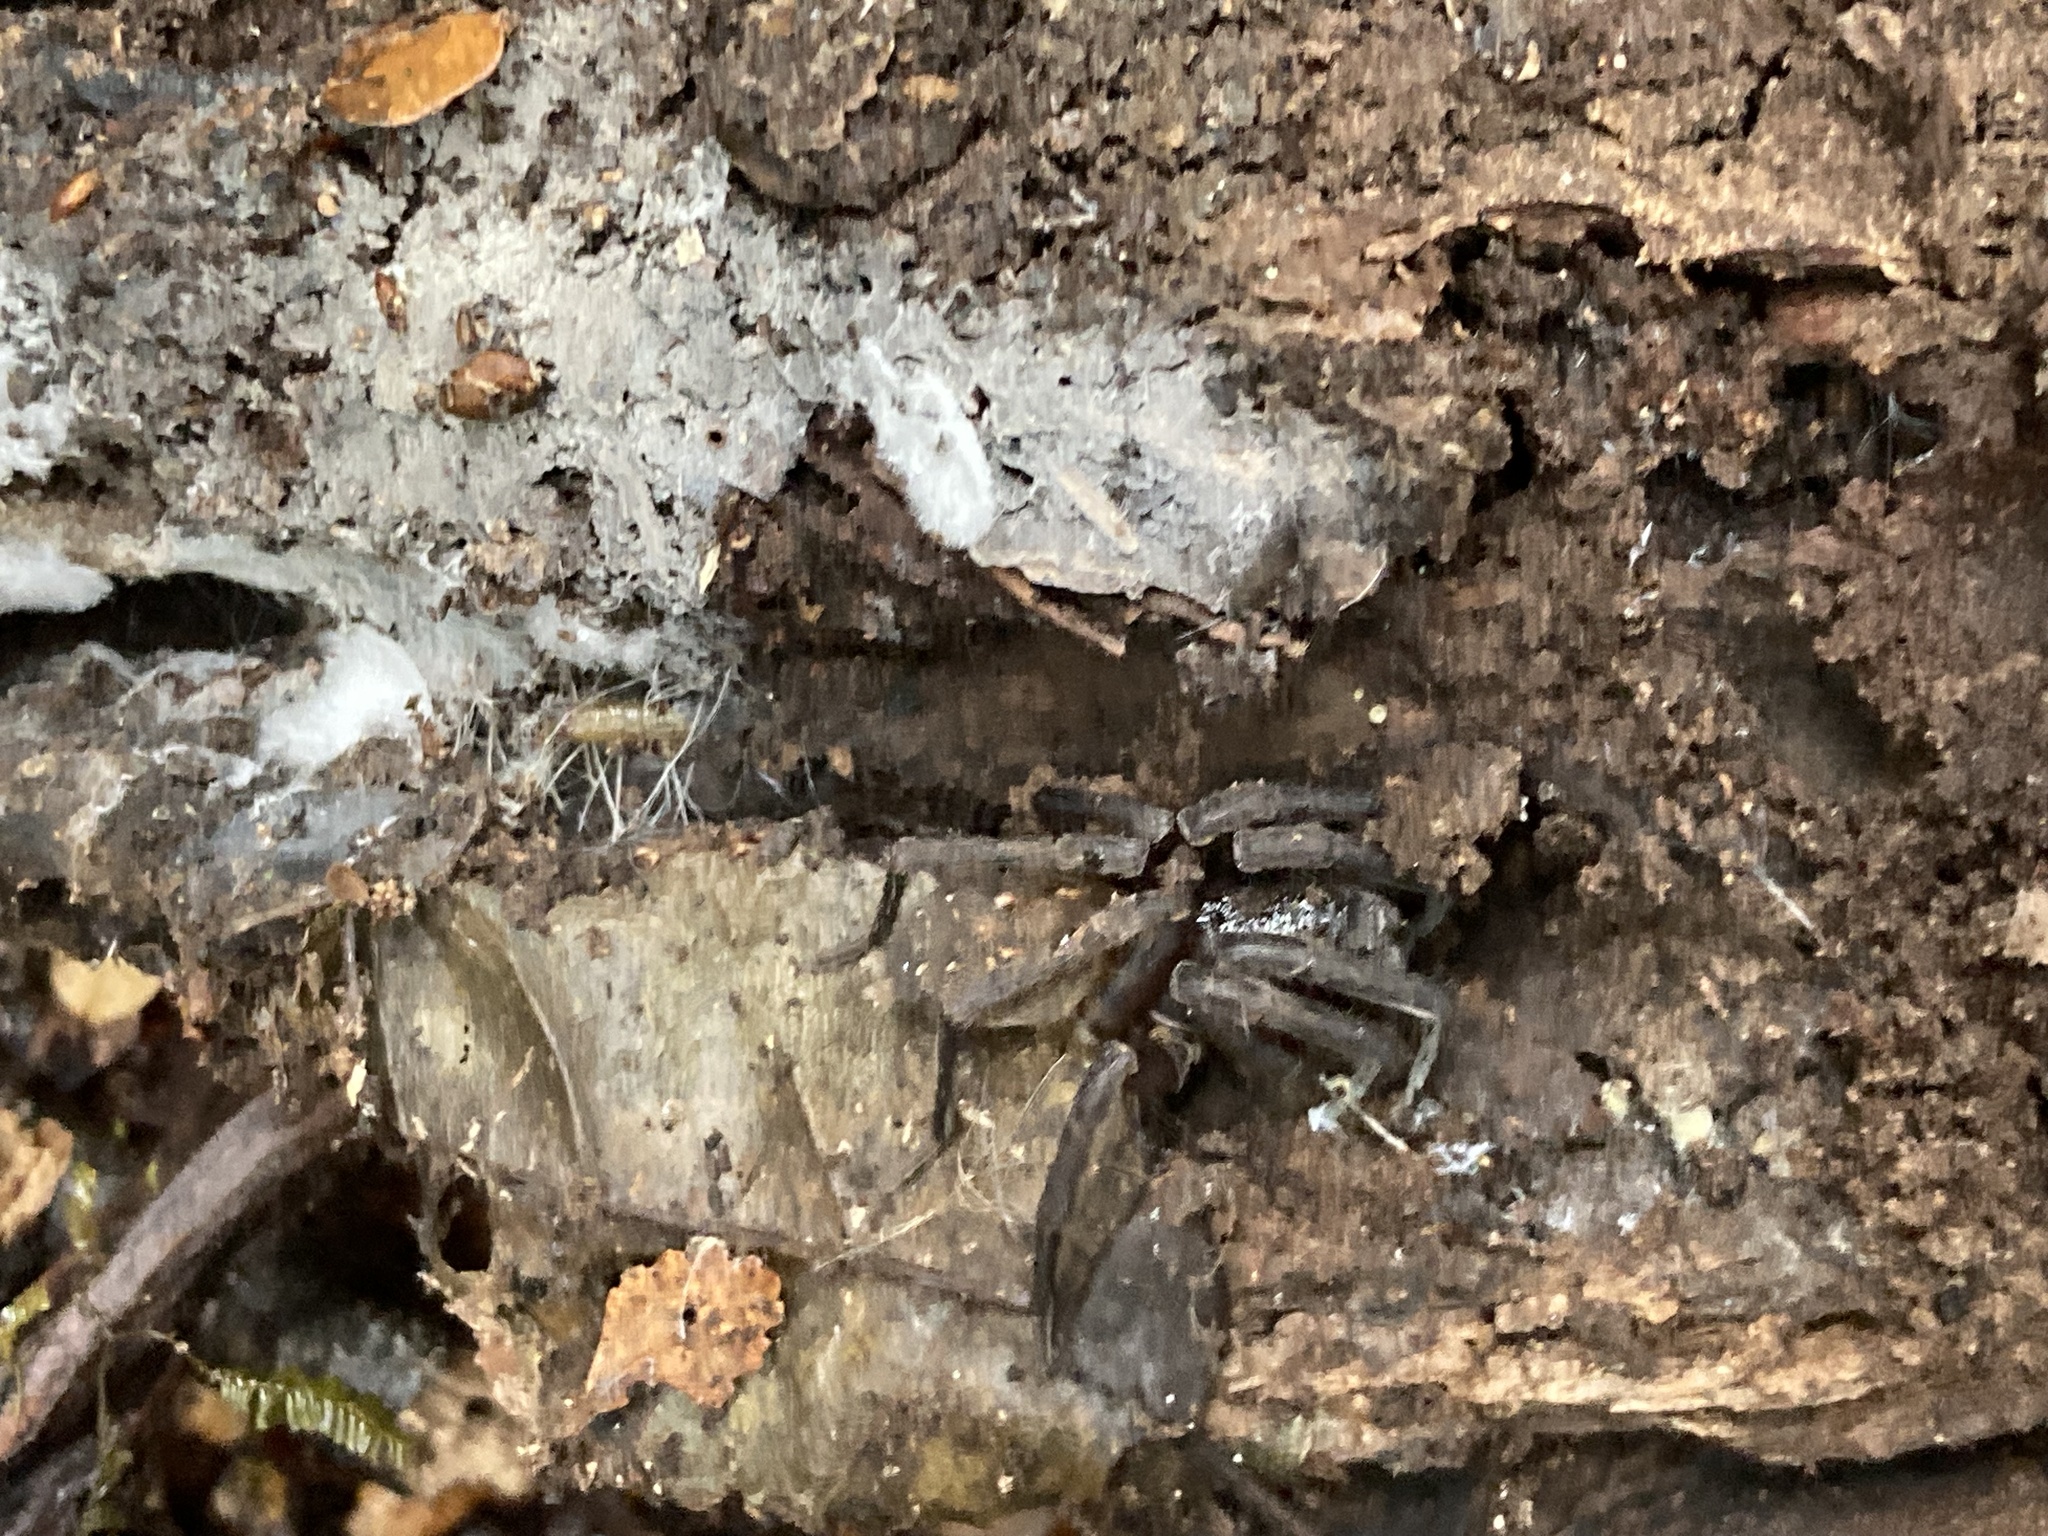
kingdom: Animalia
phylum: Arthropoda
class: Arachnida
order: Araneae
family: Zoropsidae
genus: Uliodon
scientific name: Uliodon
